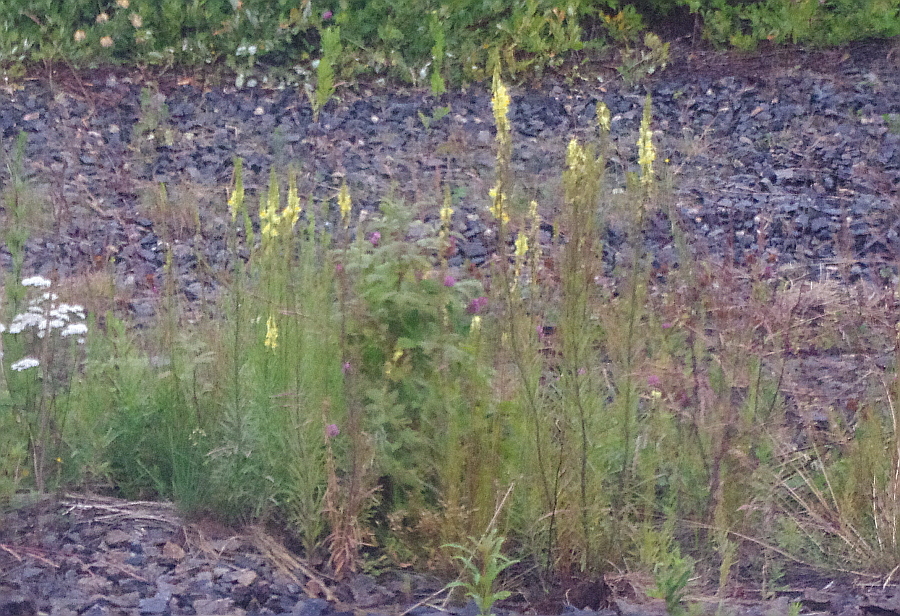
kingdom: Plantae
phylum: Tracheophyta
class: Magnoliopsida
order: Lamiales
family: Plantaginaceae
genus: Linaria
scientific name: Linaria vulgaris
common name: Butter and eggs
